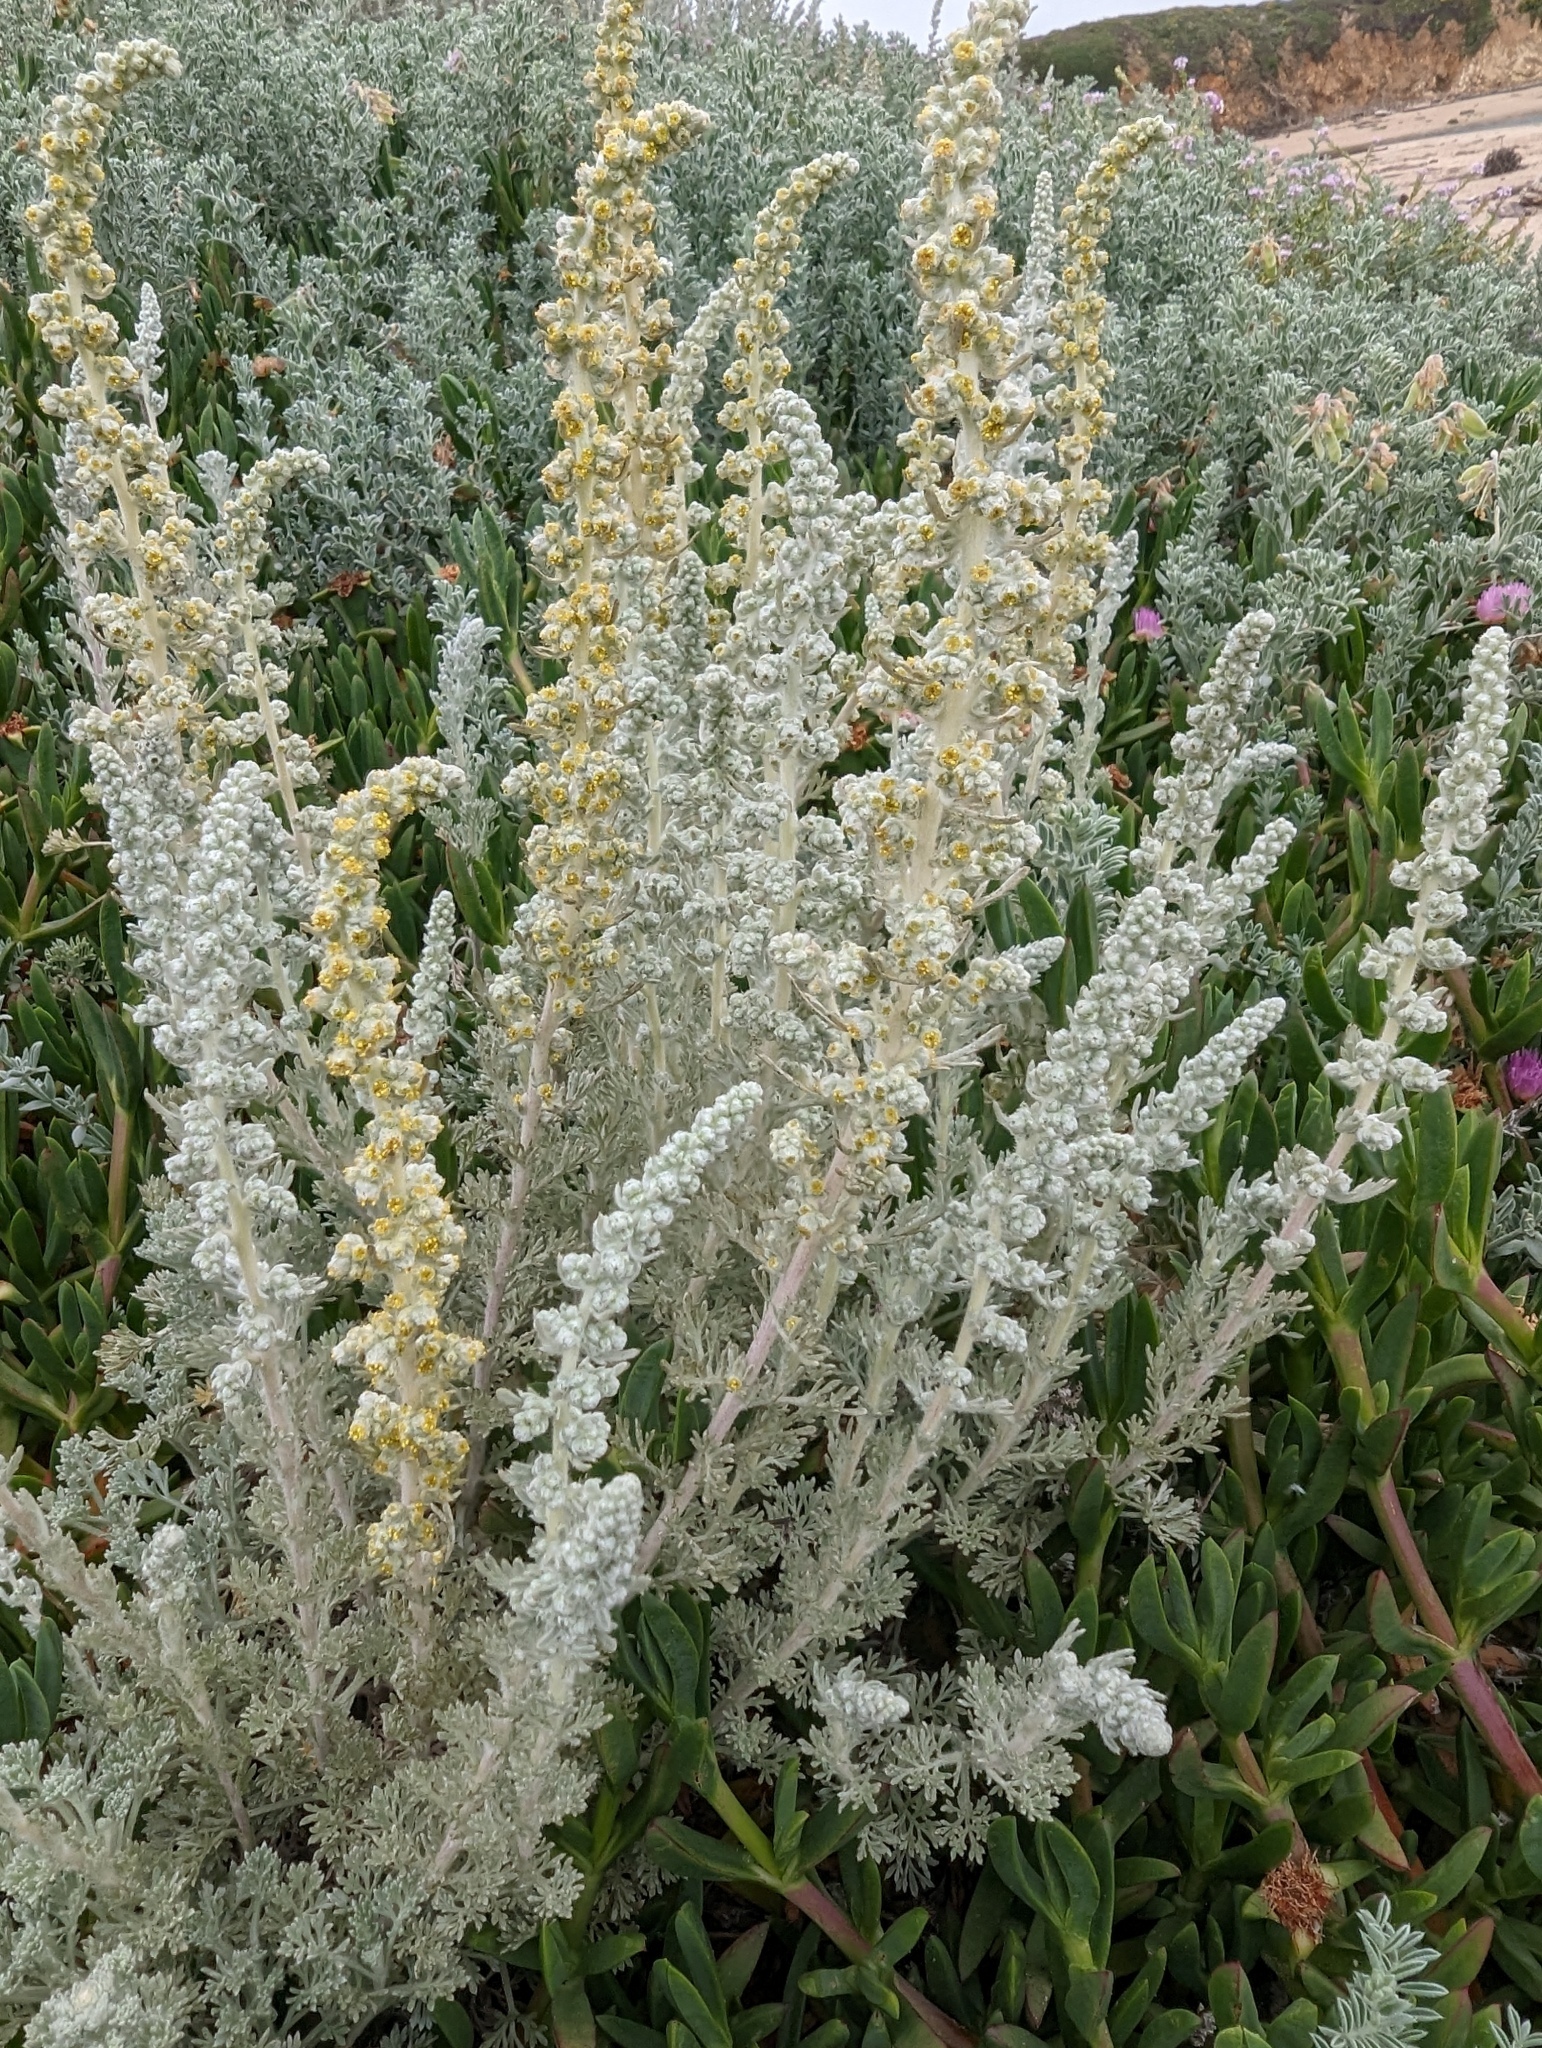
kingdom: Plantae
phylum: Tracheophyta
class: Magnoliopsida
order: Asterales
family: Asteraceae
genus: Artemisia
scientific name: Artemisia pycnocephala
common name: Coastal sagewort
